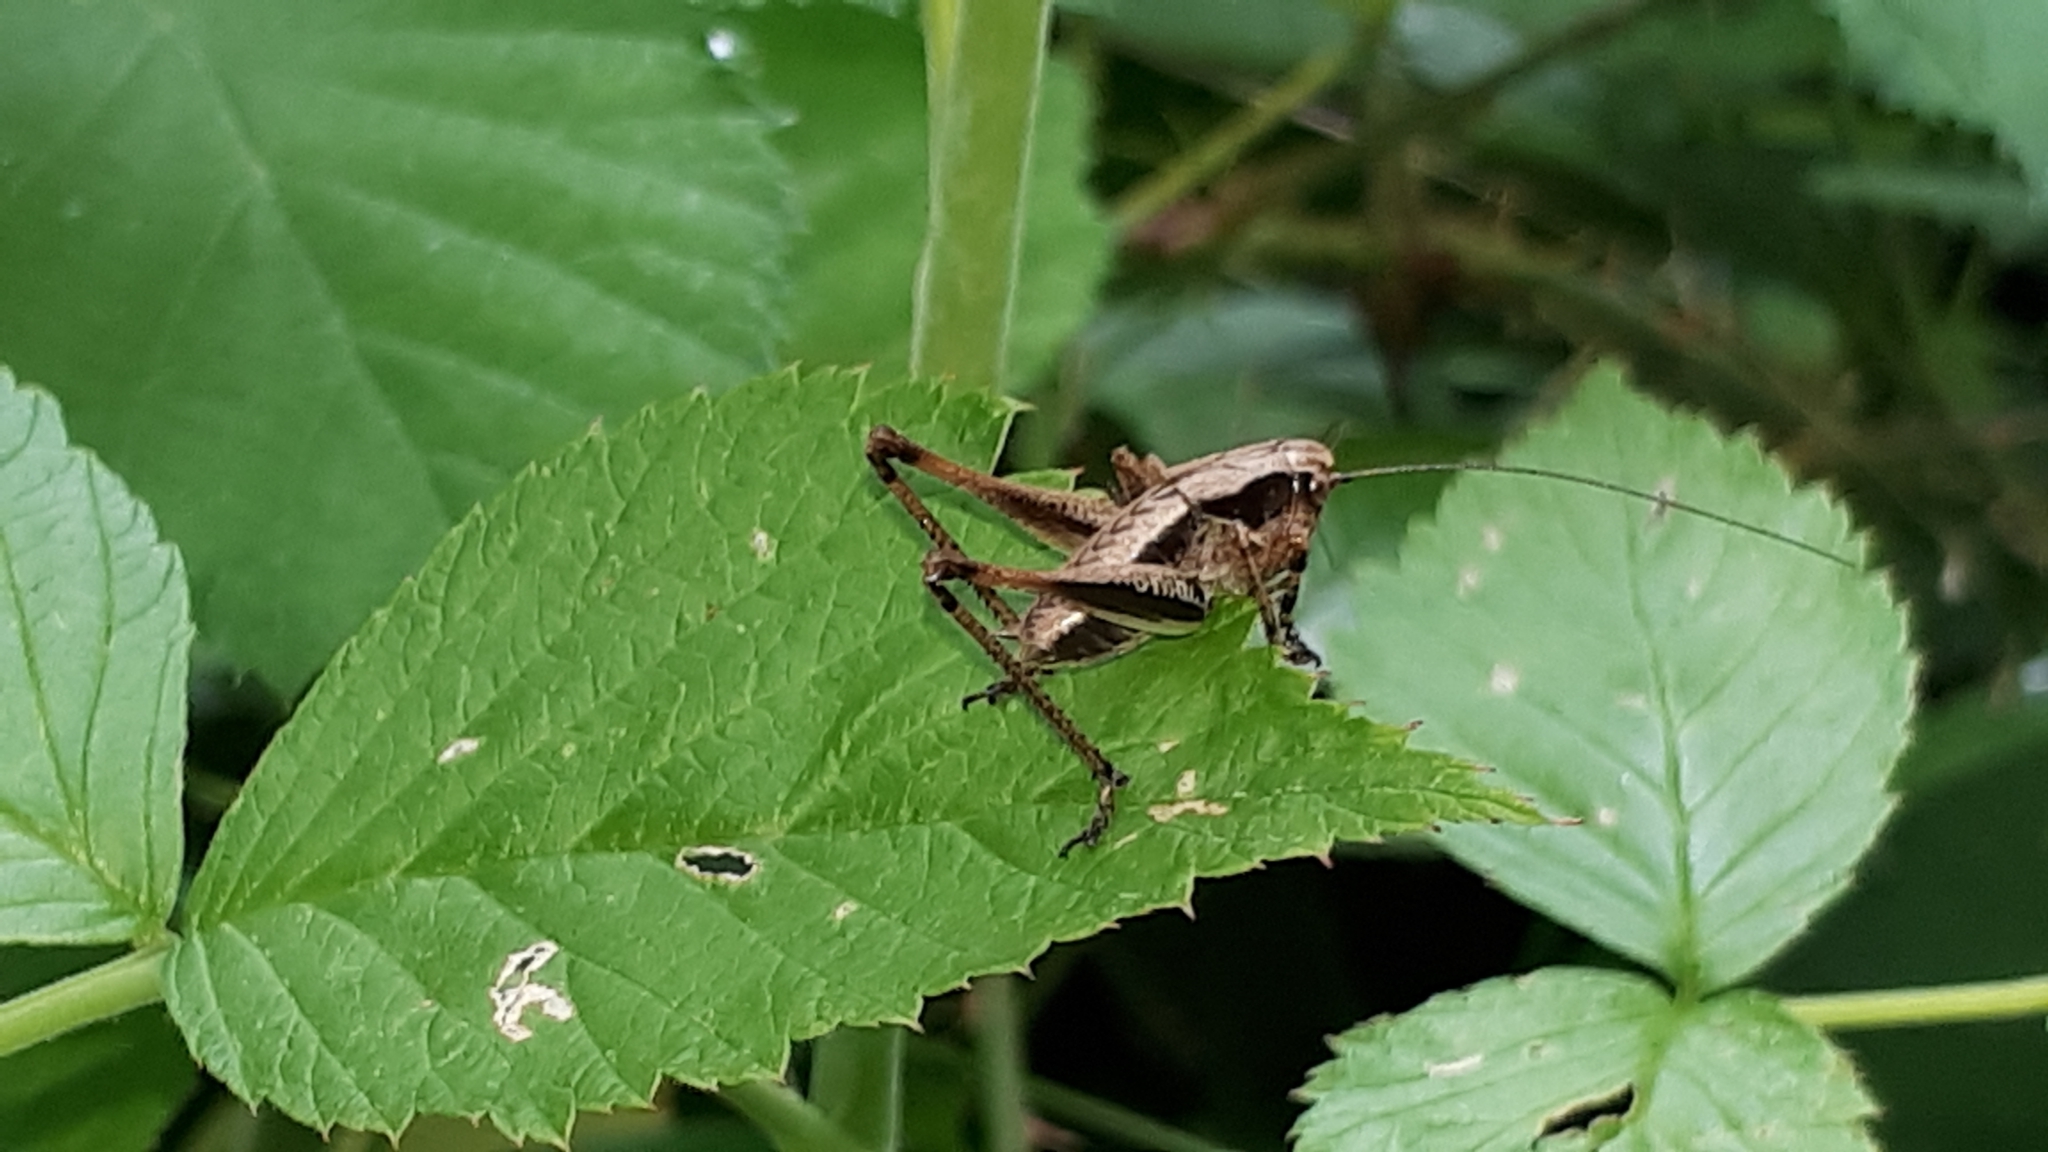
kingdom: Animalia
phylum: Arthropoda
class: Insecta
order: Orthoptera
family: Tettigoniidae
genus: Pholidoptera
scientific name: Pholidoptera griseoaptera
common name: Dark bush-cricket
